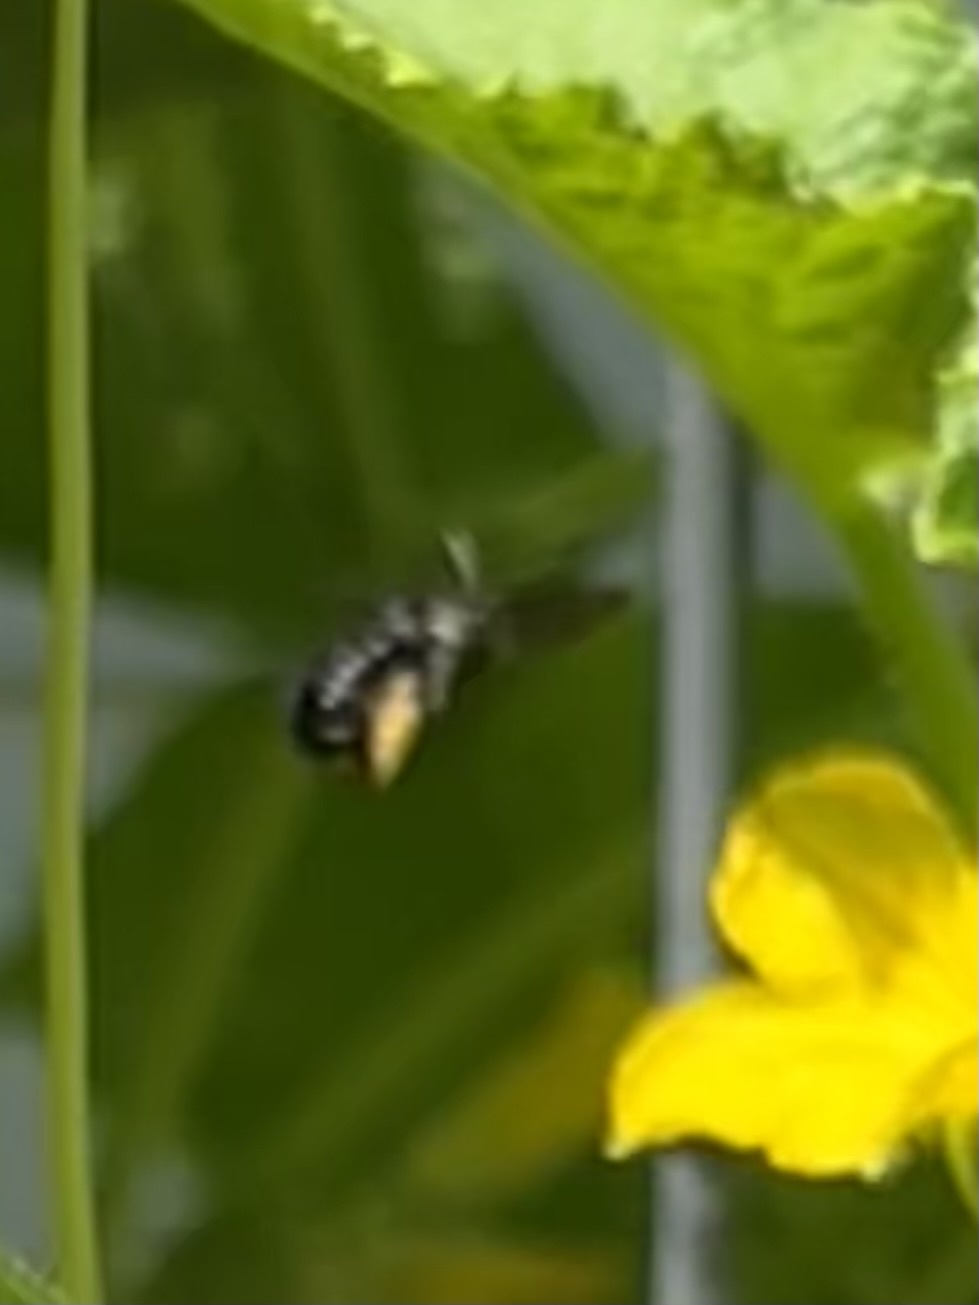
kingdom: Animalia
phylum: Arthropoda
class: Insecta
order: Hymenoptera
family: Apidae
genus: Melissodes
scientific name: Melissodes bimaculatus
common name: Two-spotted long-horned bee
